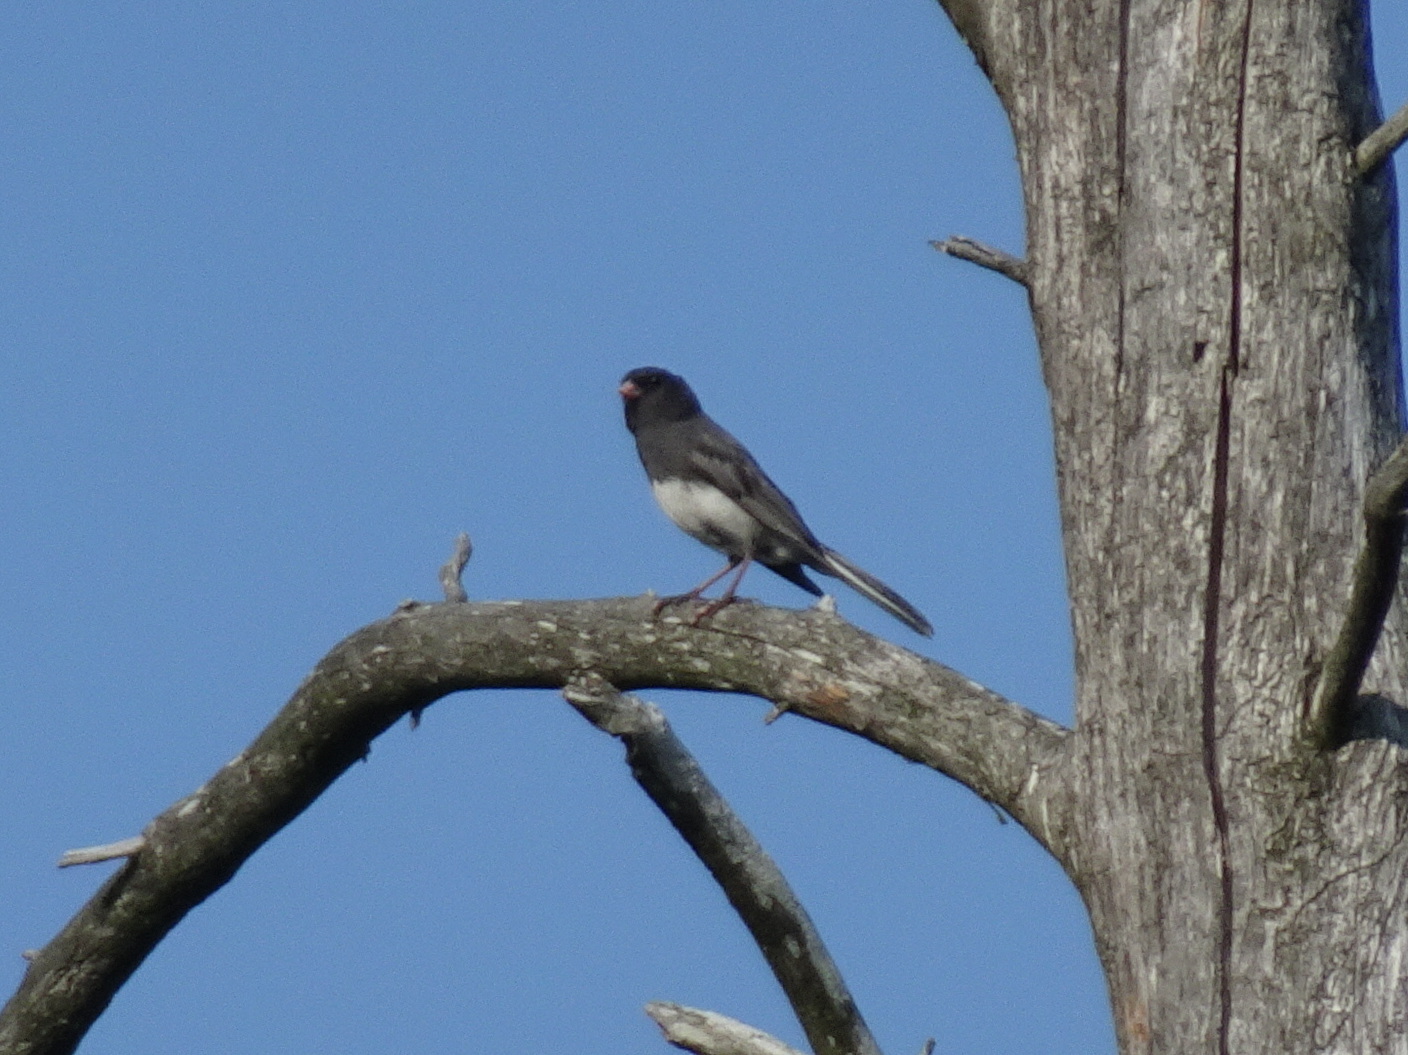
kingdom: Animalia
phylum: Chordata
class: Aves
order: Passeriformes
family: Passerellidae
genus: Junco
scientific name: Junco hyemalis
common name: Dark-eyed junco
